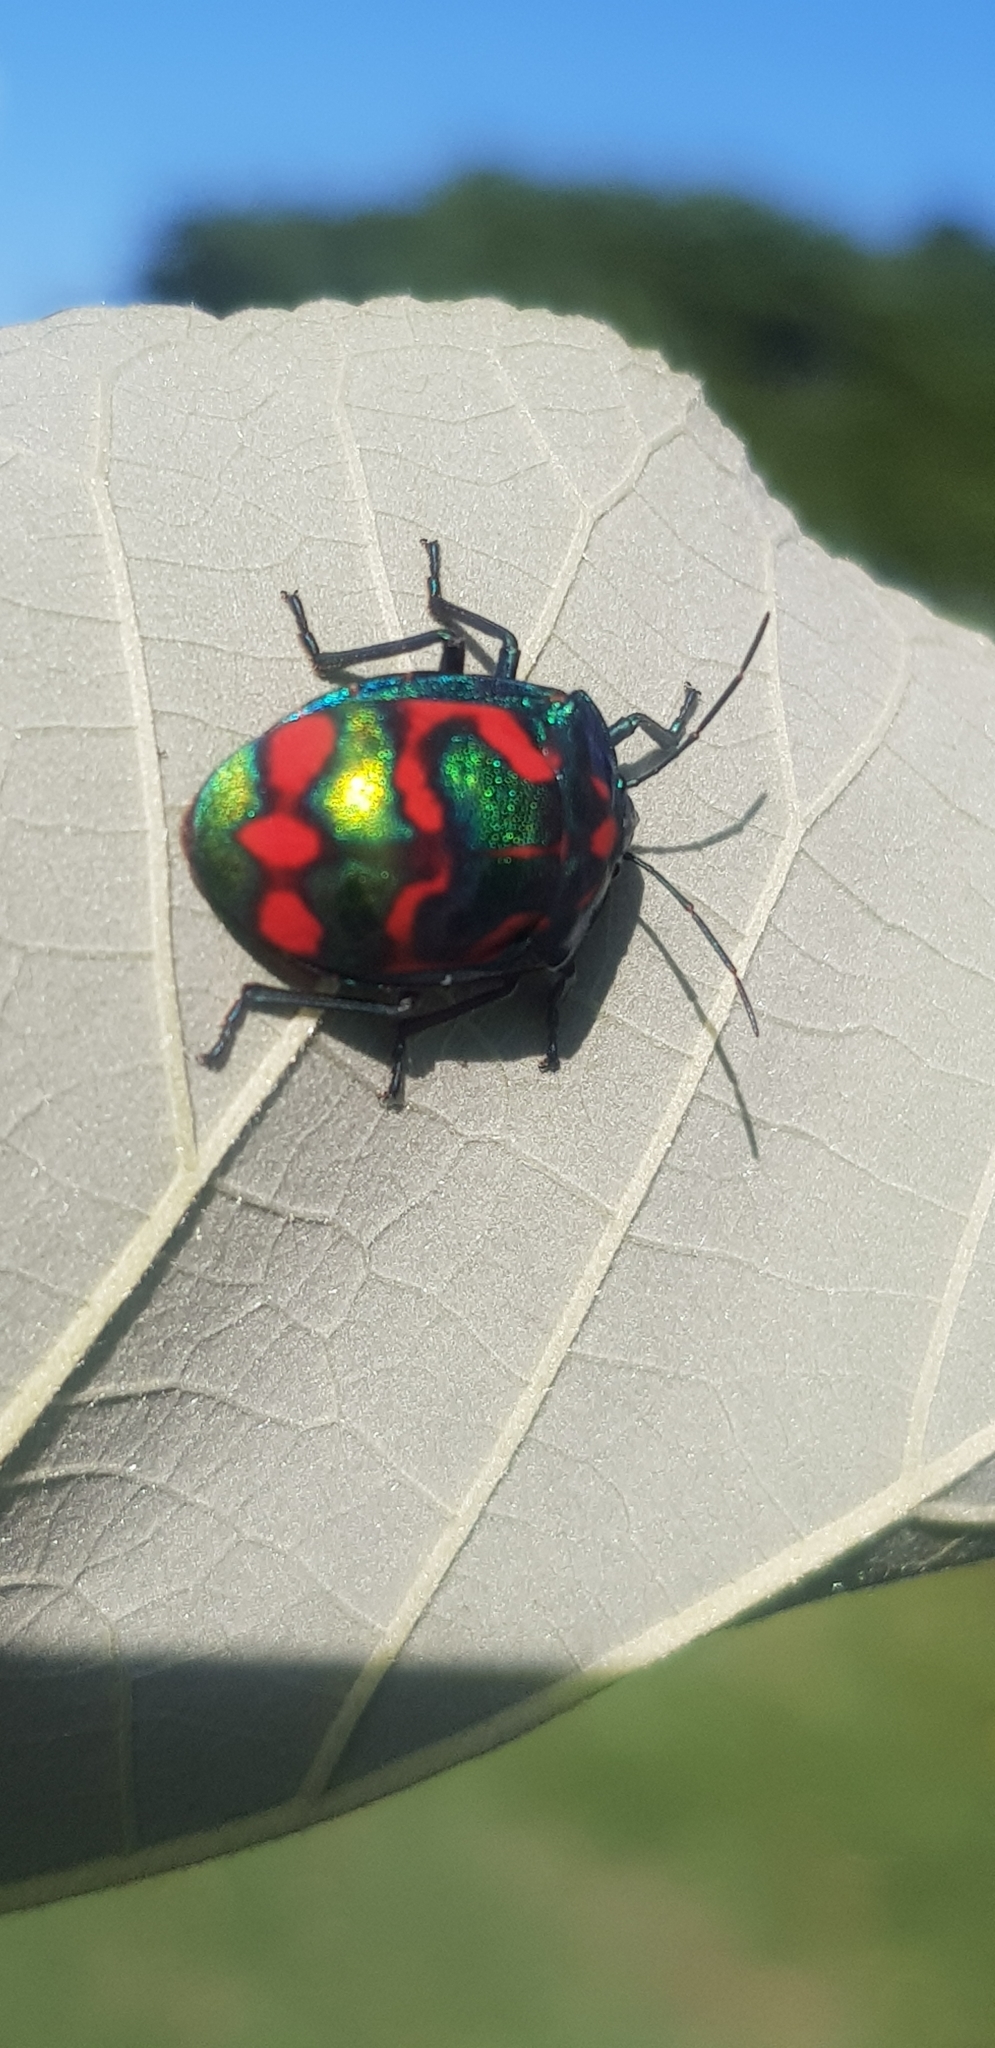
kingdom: Animalia
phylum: Arthropoda
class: Insecta
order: Hemiptera
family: Scutelleridae
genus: Tectocoris
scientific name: Tectocoris diophthalmus
